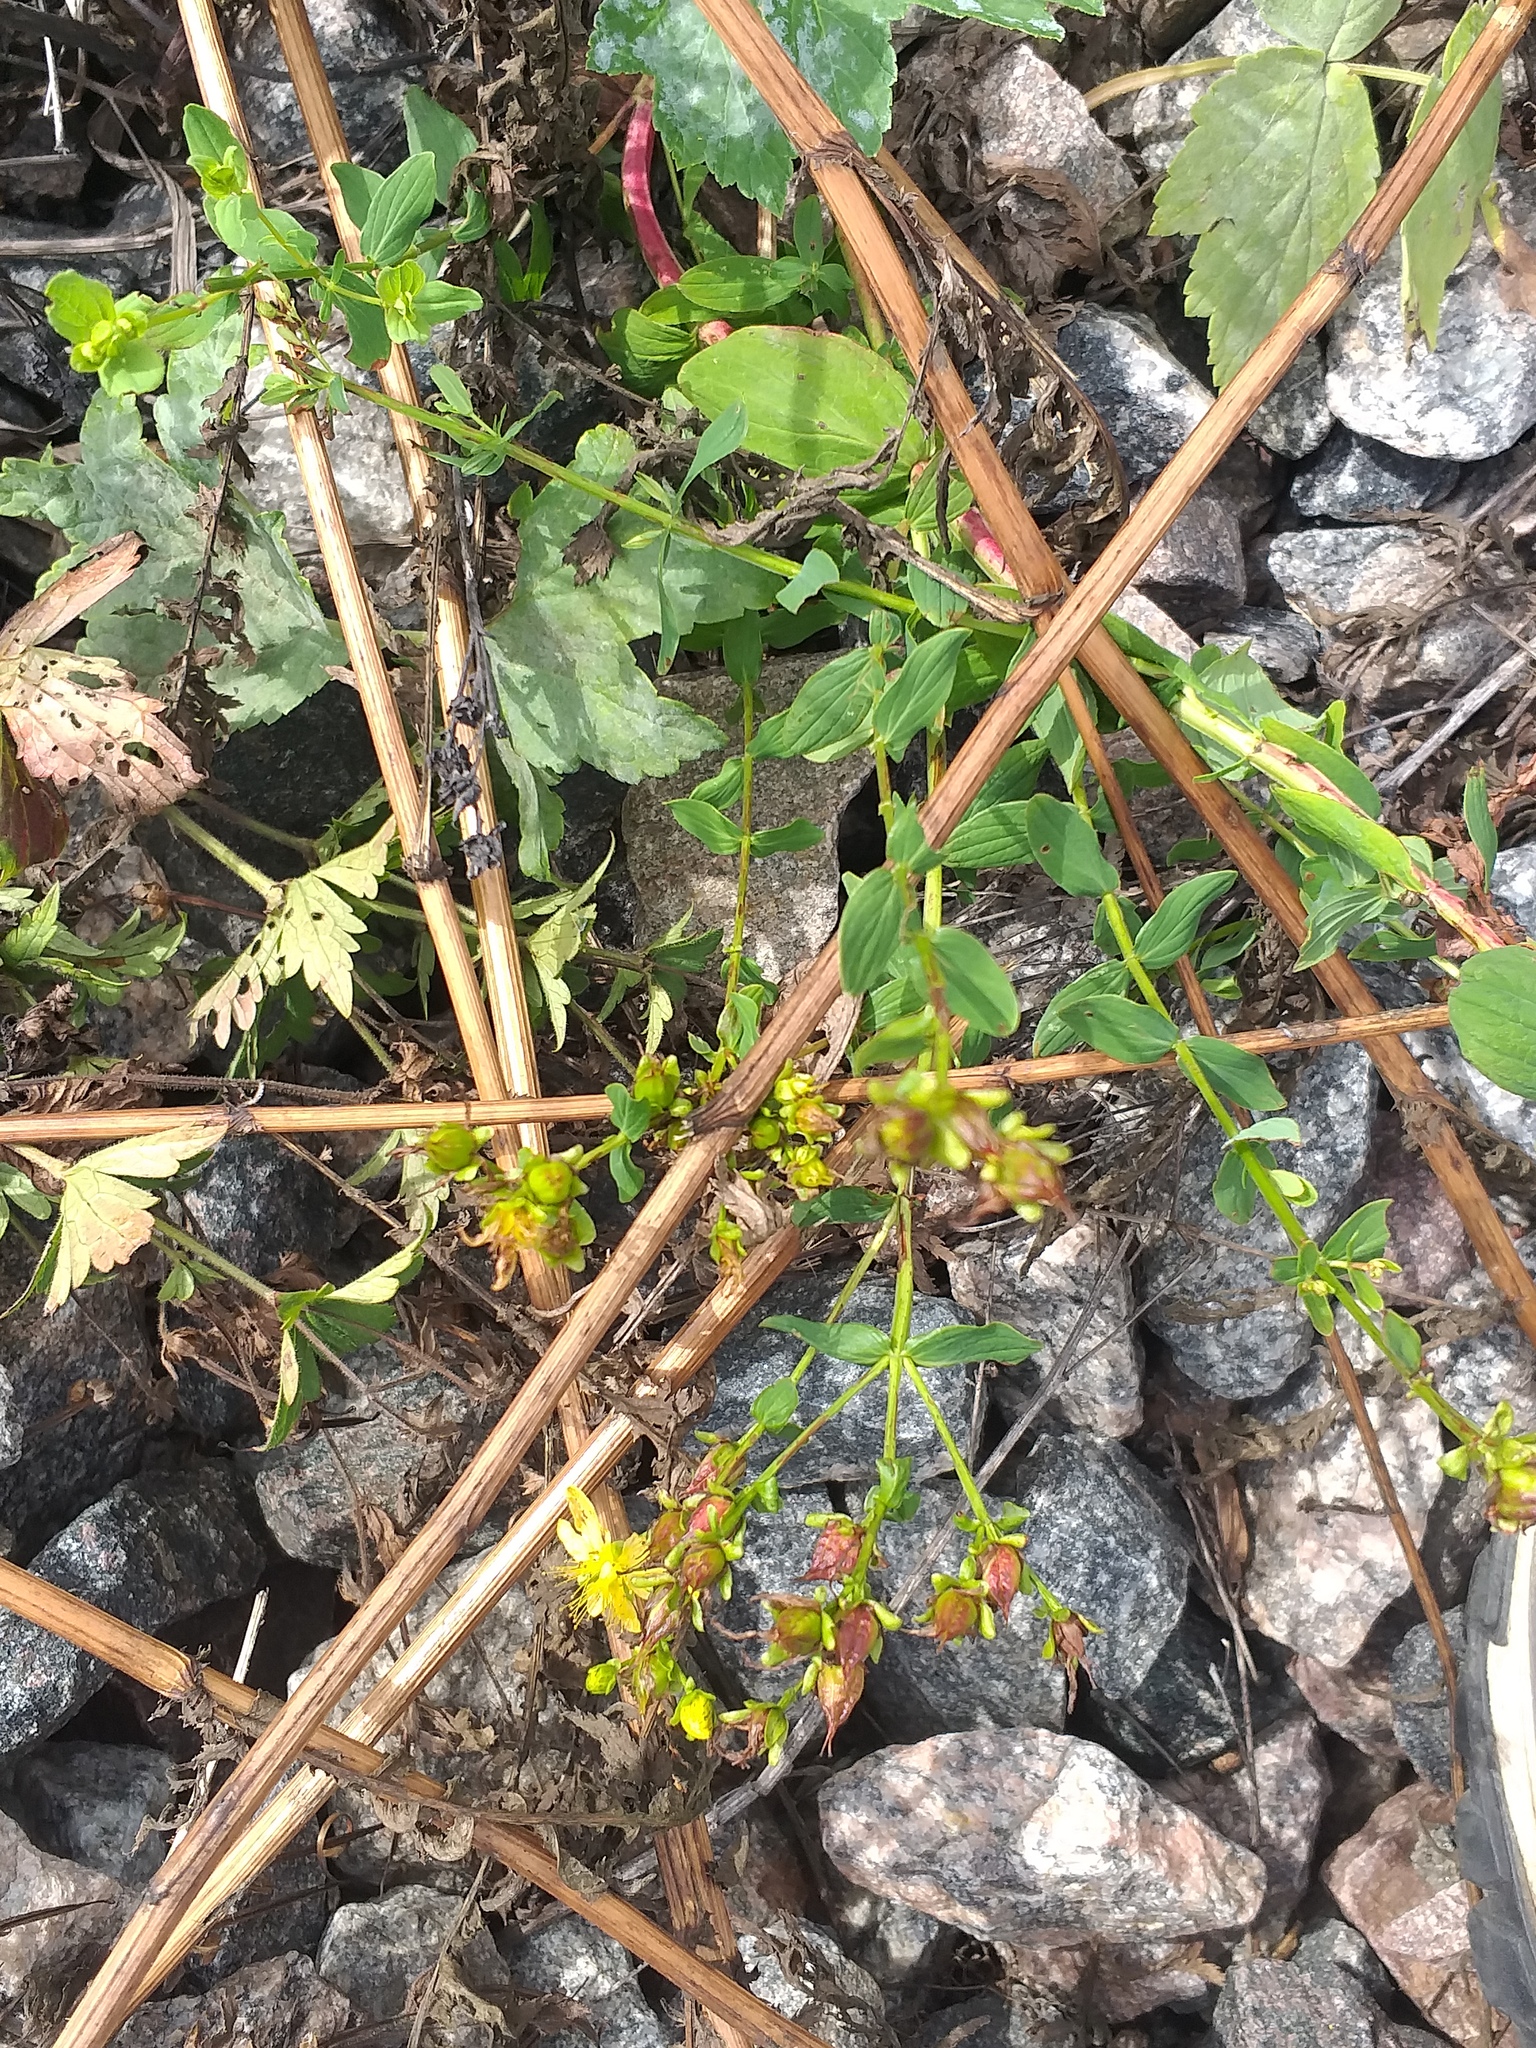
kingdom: Plantae
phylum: Tracheophyta
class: Magnoliopsida
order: Malpighiales
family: Hypericaceae
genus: Hypericum
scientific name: Hypericum maculatum
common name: Imperforate st. john's-wort
